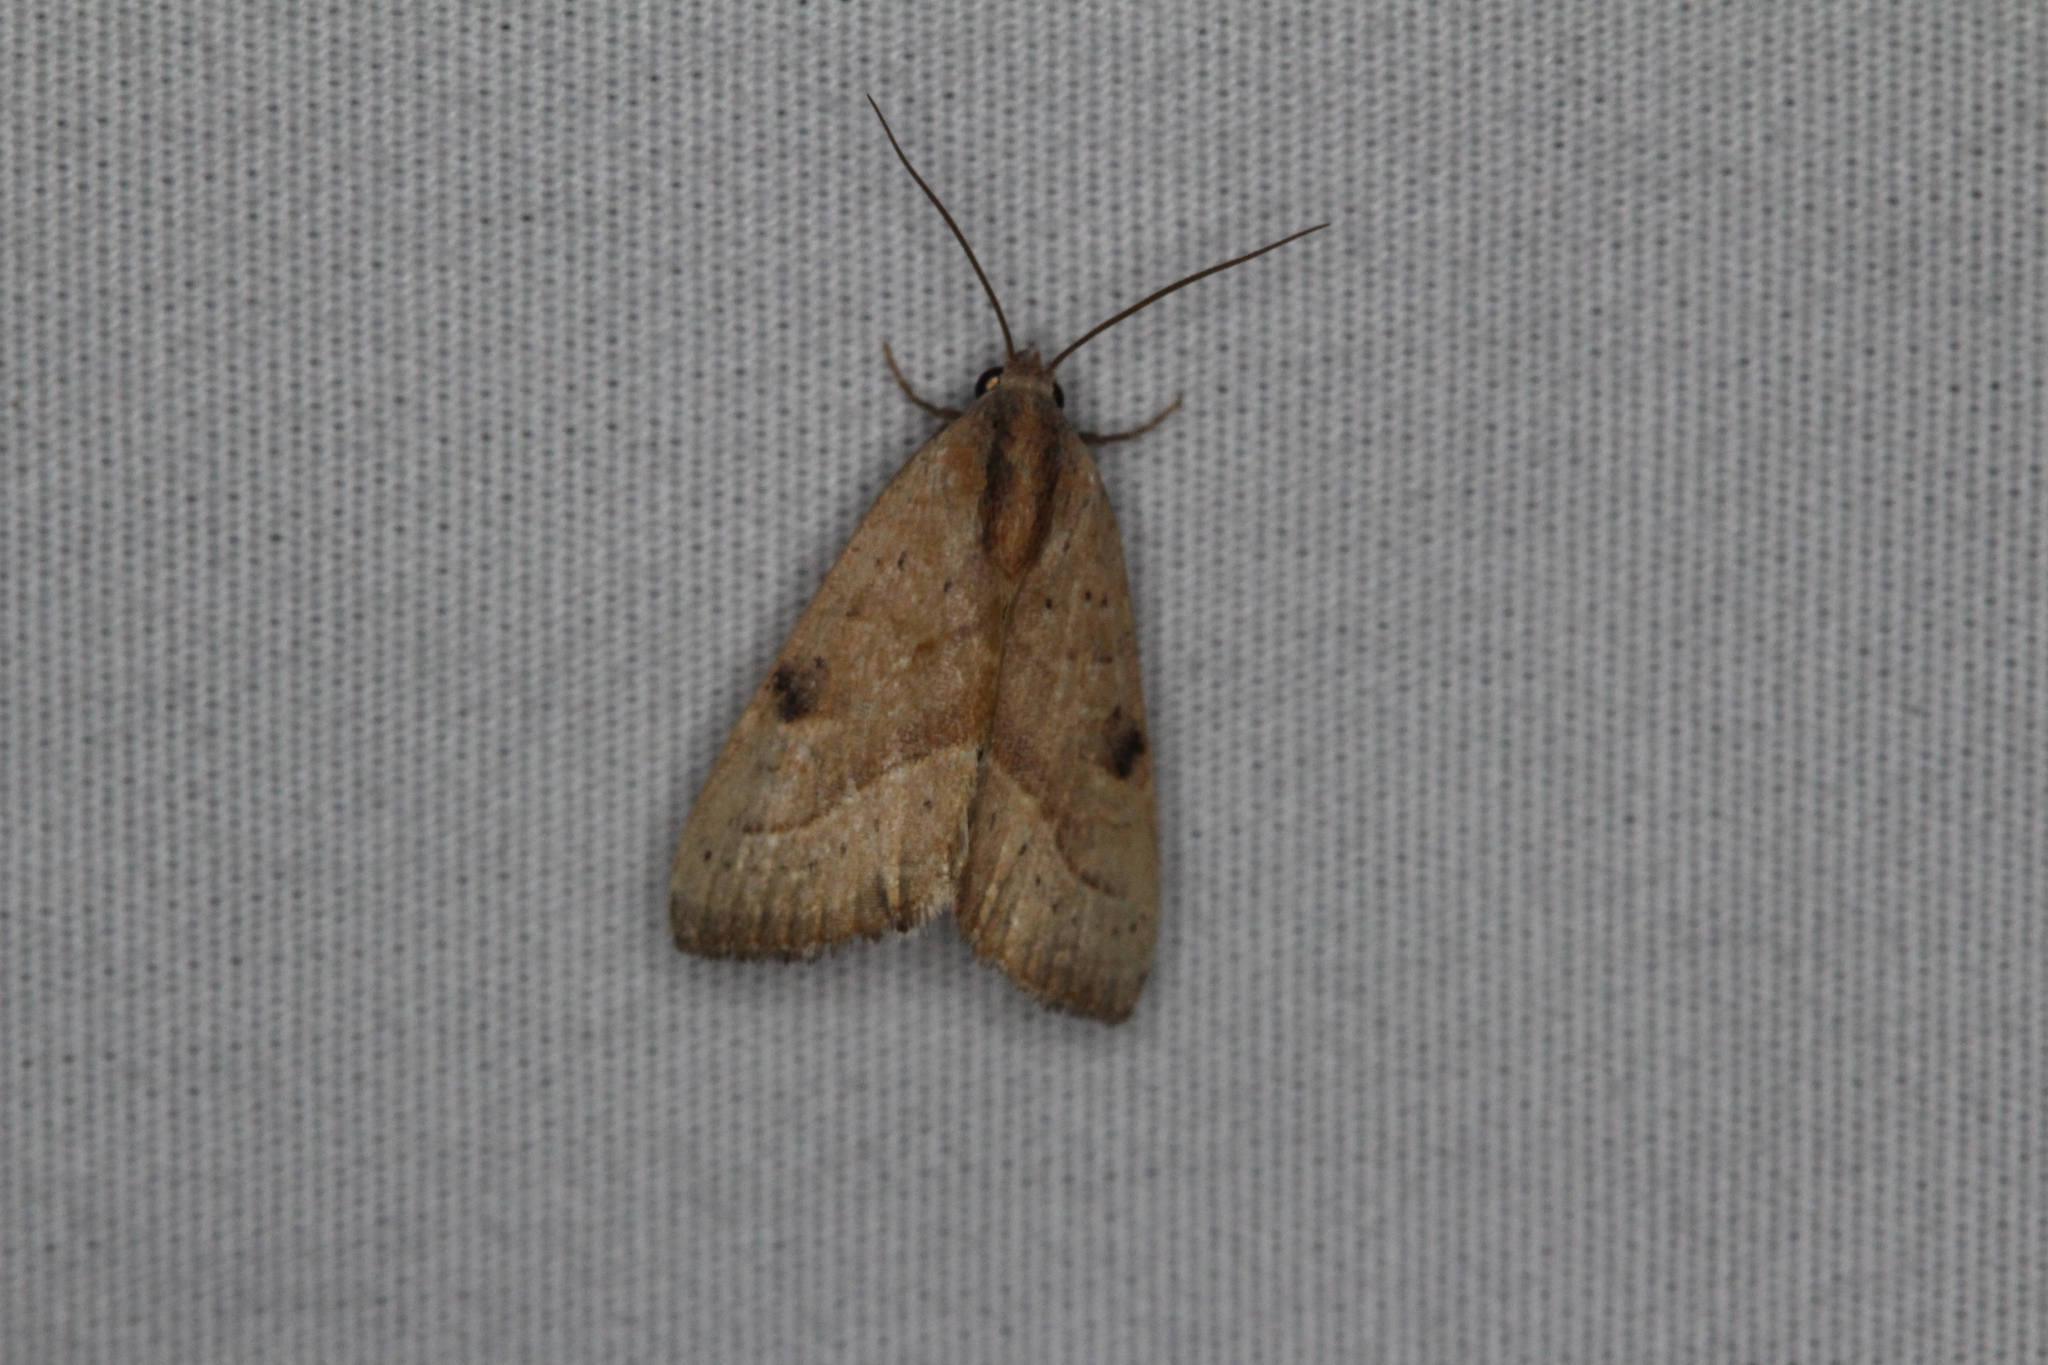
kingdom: Animalia
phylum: Arthropoda
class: Insecta
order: Lepidoptera
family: Noctuidae
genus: Galgula
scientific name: Galgula partita
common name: Wedgeling
